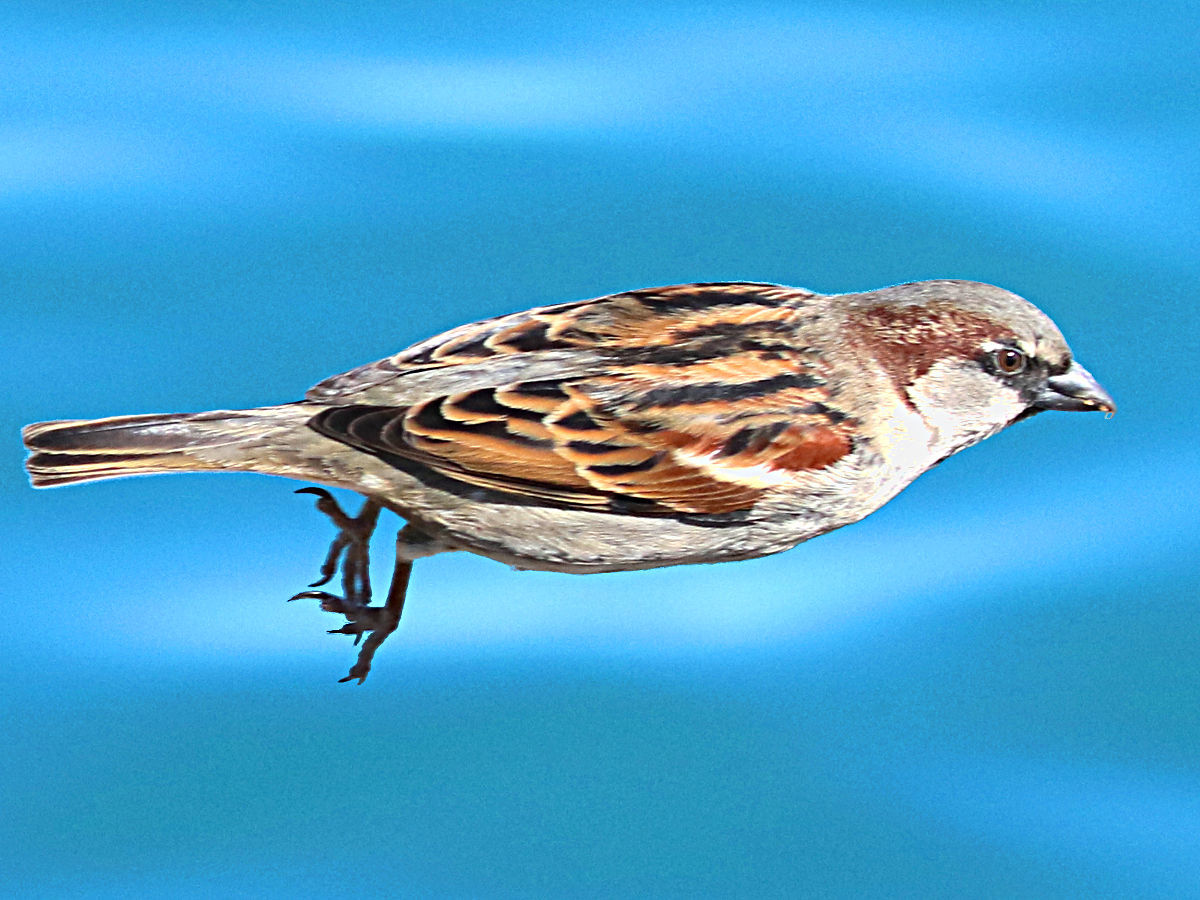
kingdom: Animalia
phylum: Chordata
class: Aves
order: Passeriformes
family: Passeridae
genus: Passer
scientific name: Passer domesticus
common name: House sparrow
